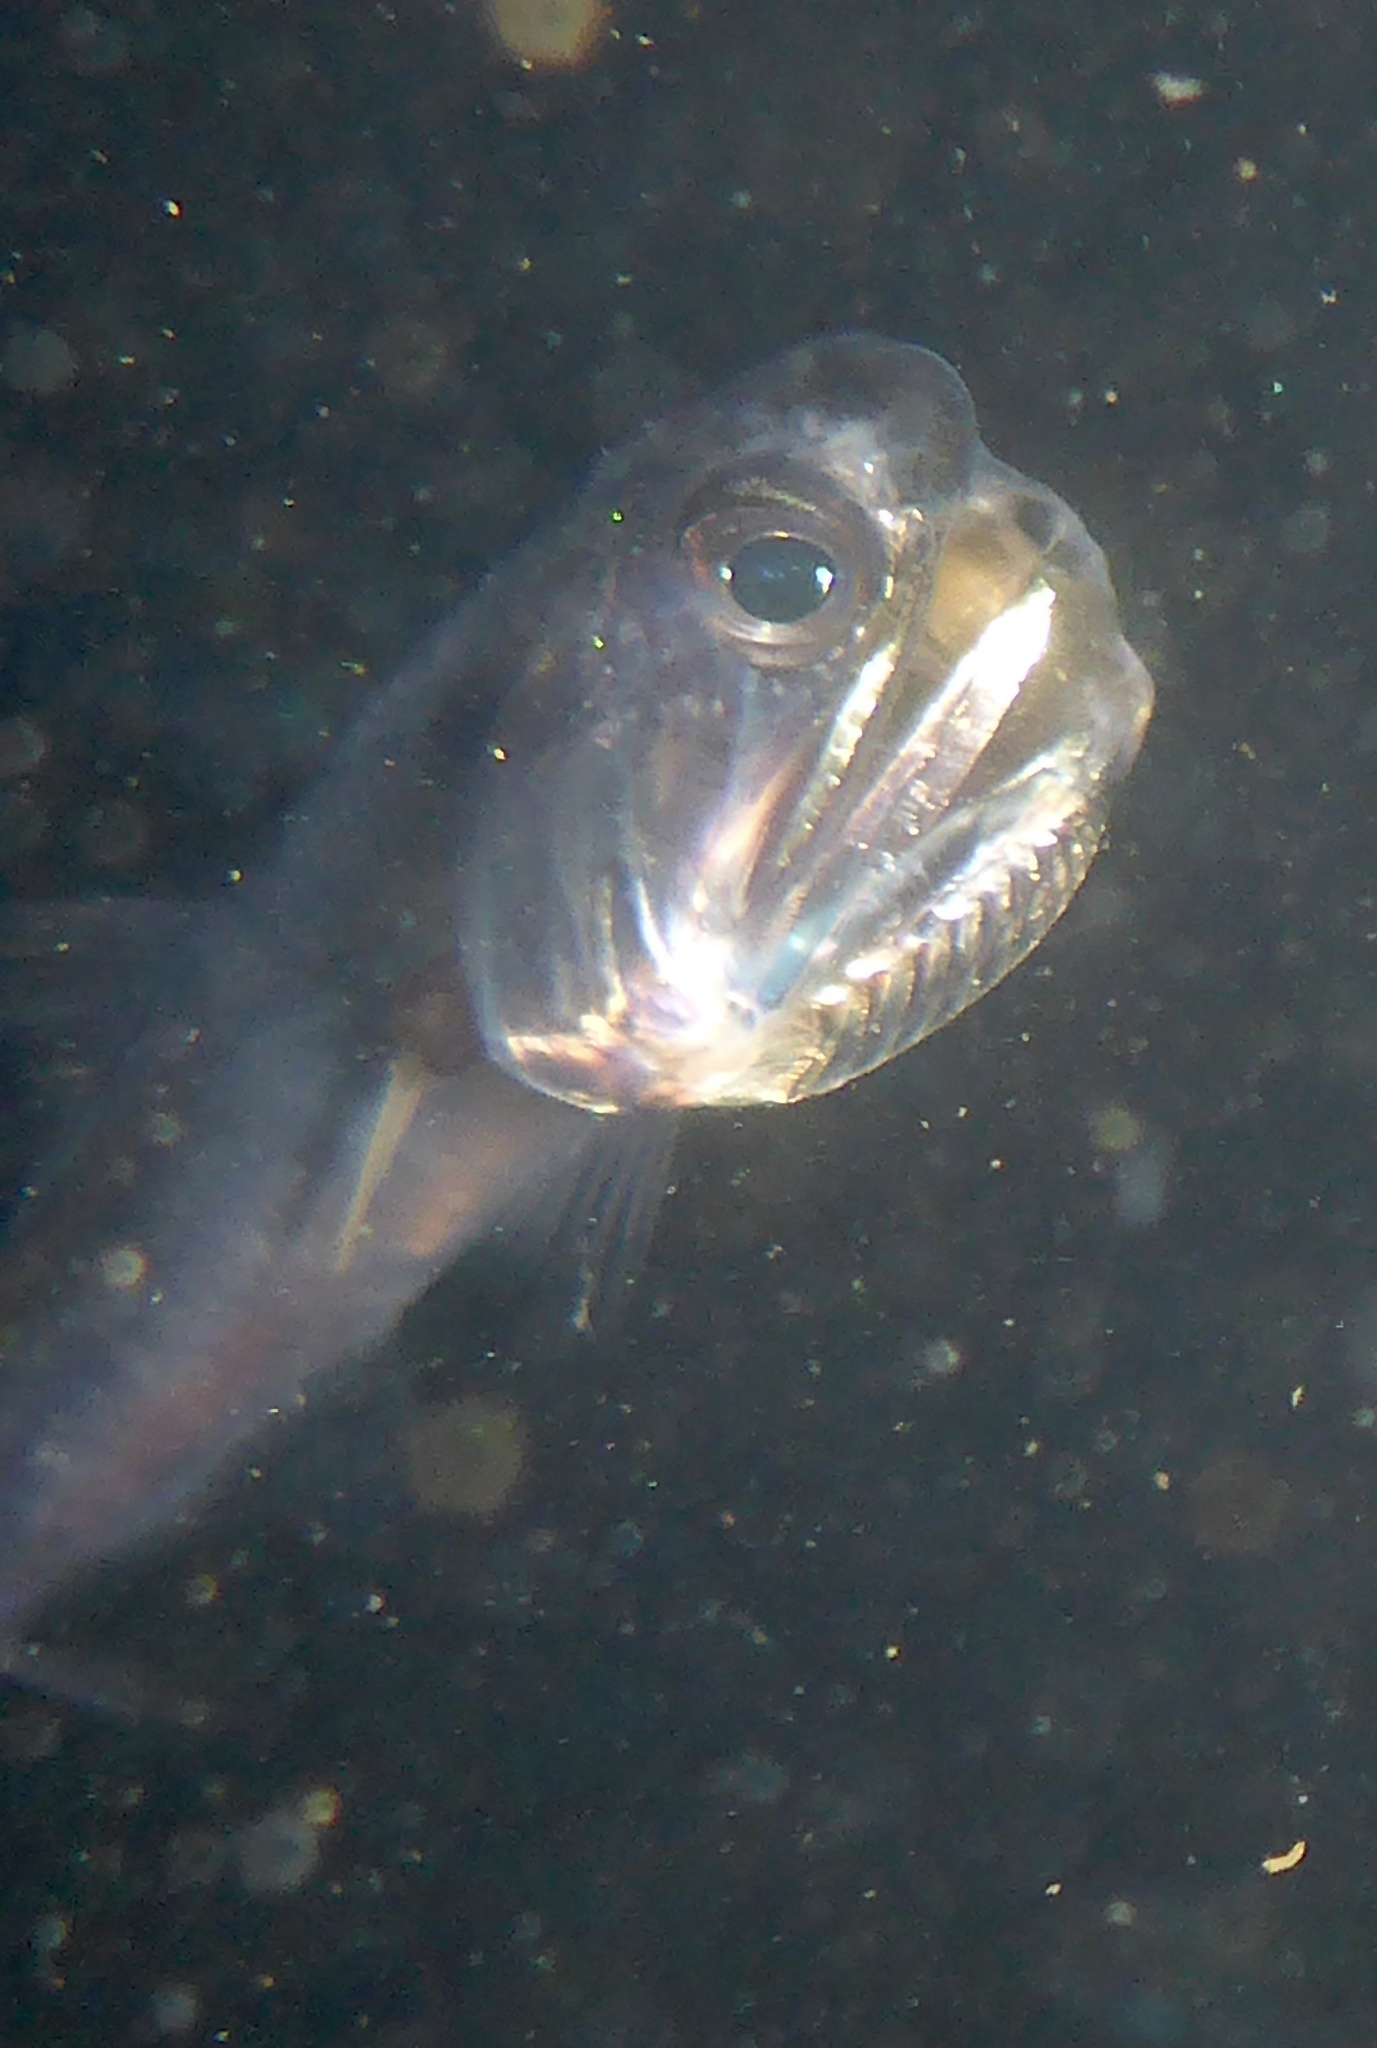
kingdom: Animalia
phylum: Chordata
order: Clupeiformes
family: Engraulidae
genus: Engraulis
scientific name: Engraulis mordax
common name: Northern anchovy
